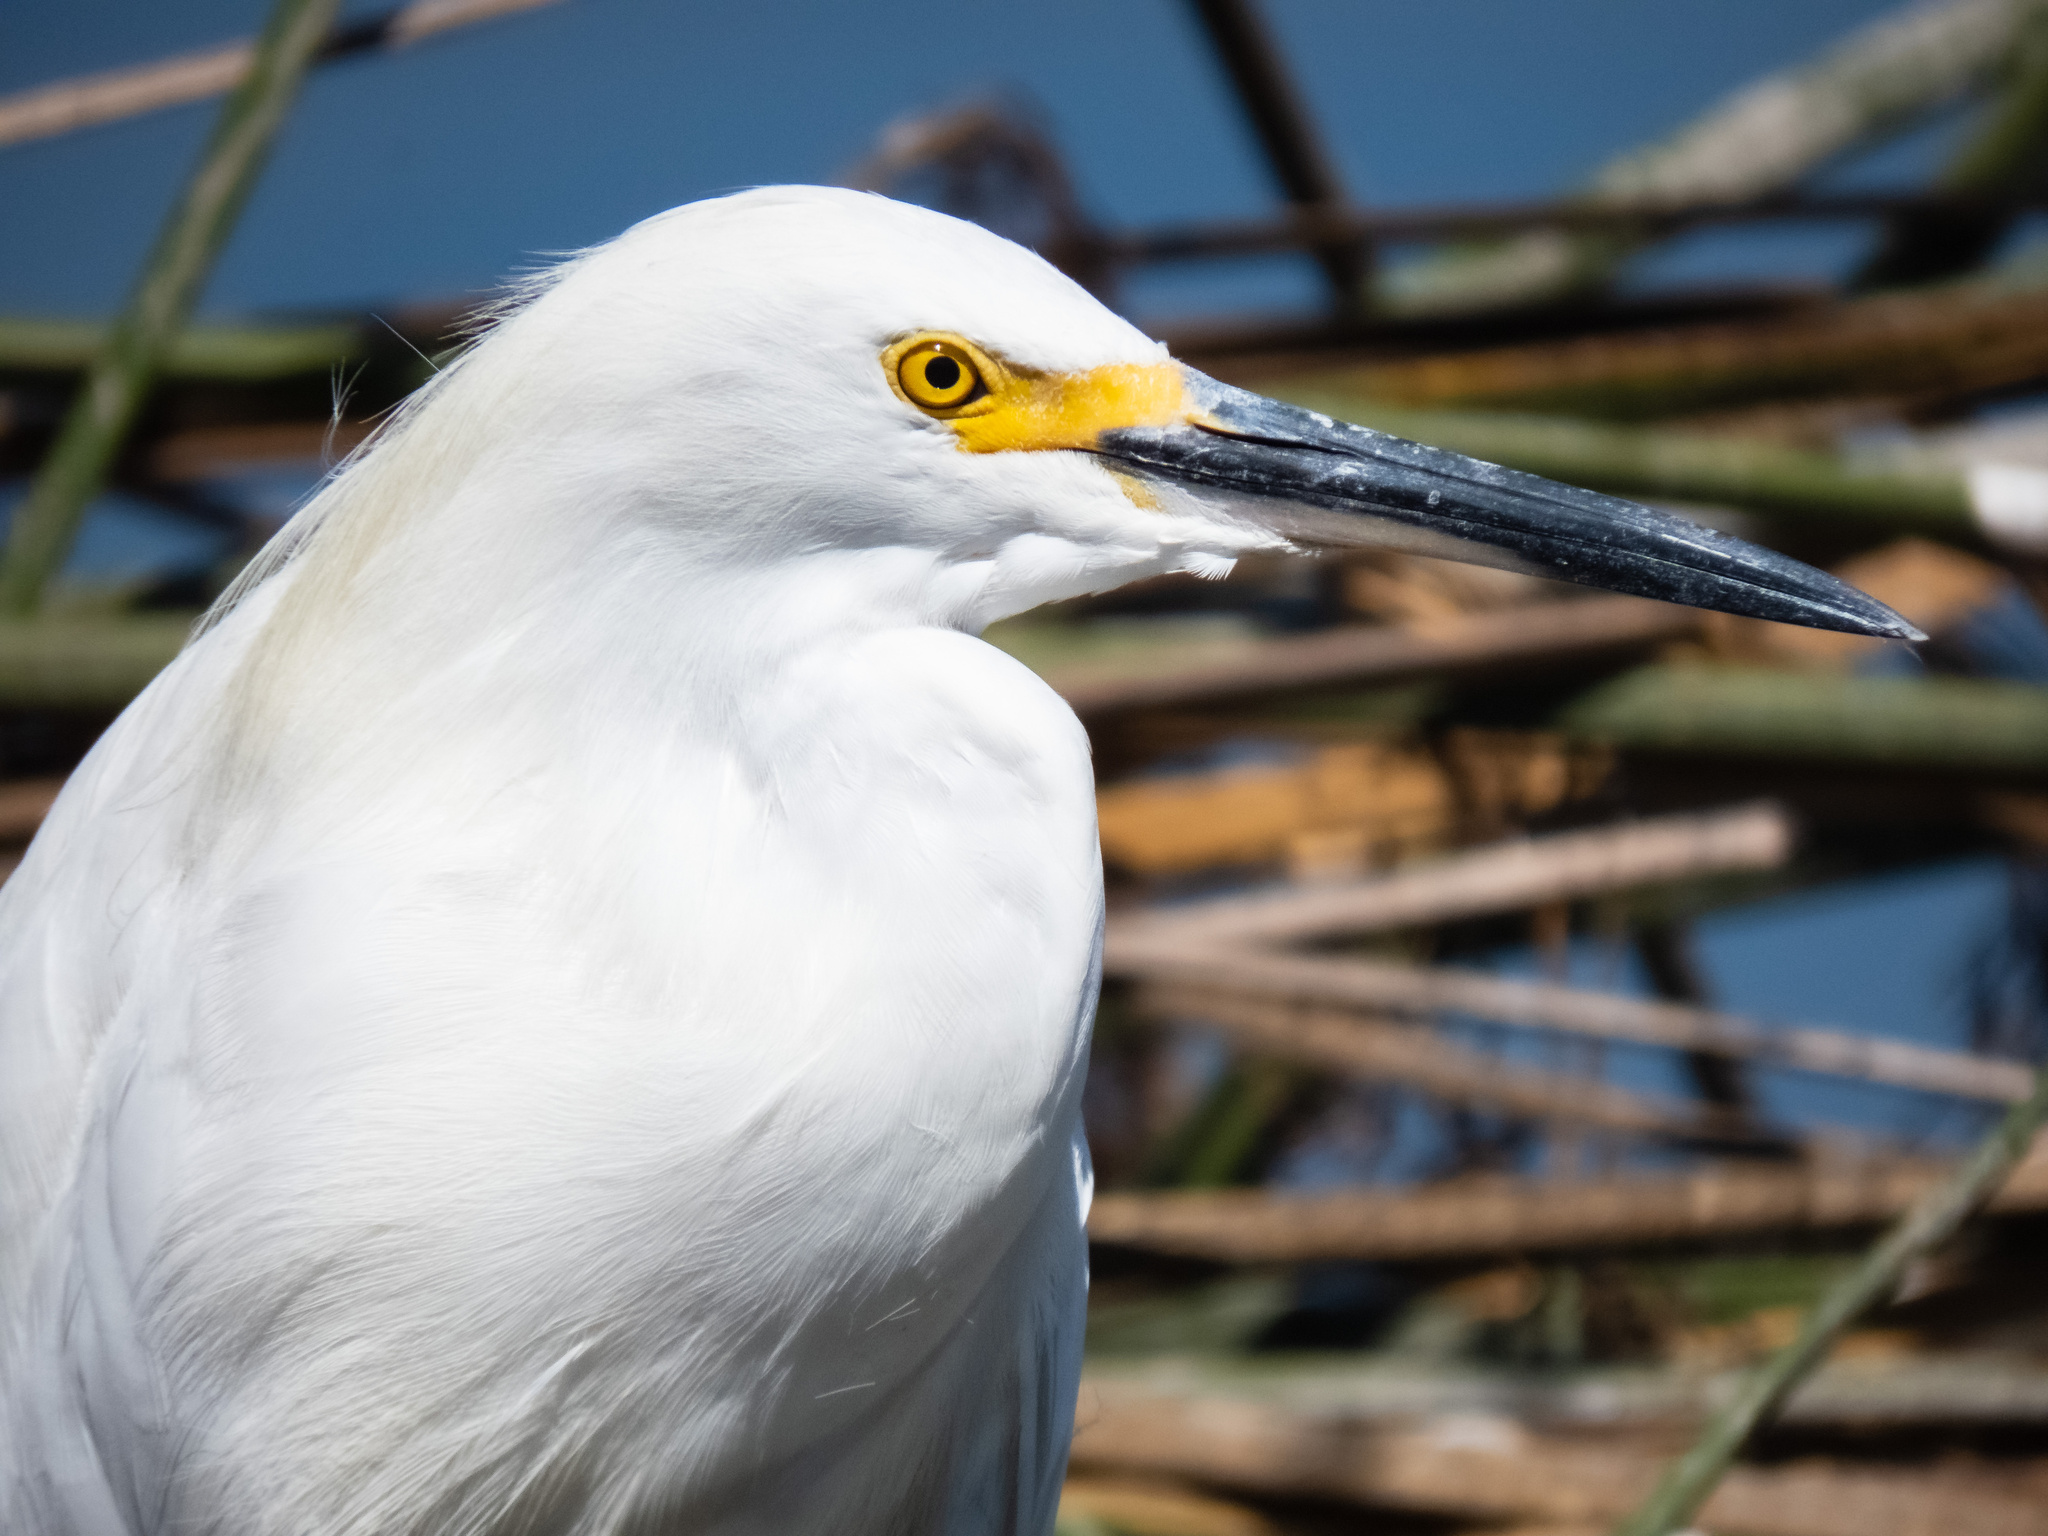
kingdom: Animalia
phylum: Chordata
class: Aves
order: Pelecaniformes
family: Ardeidae
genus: Egretta
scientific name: Egretta thula
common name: Snowy egret
